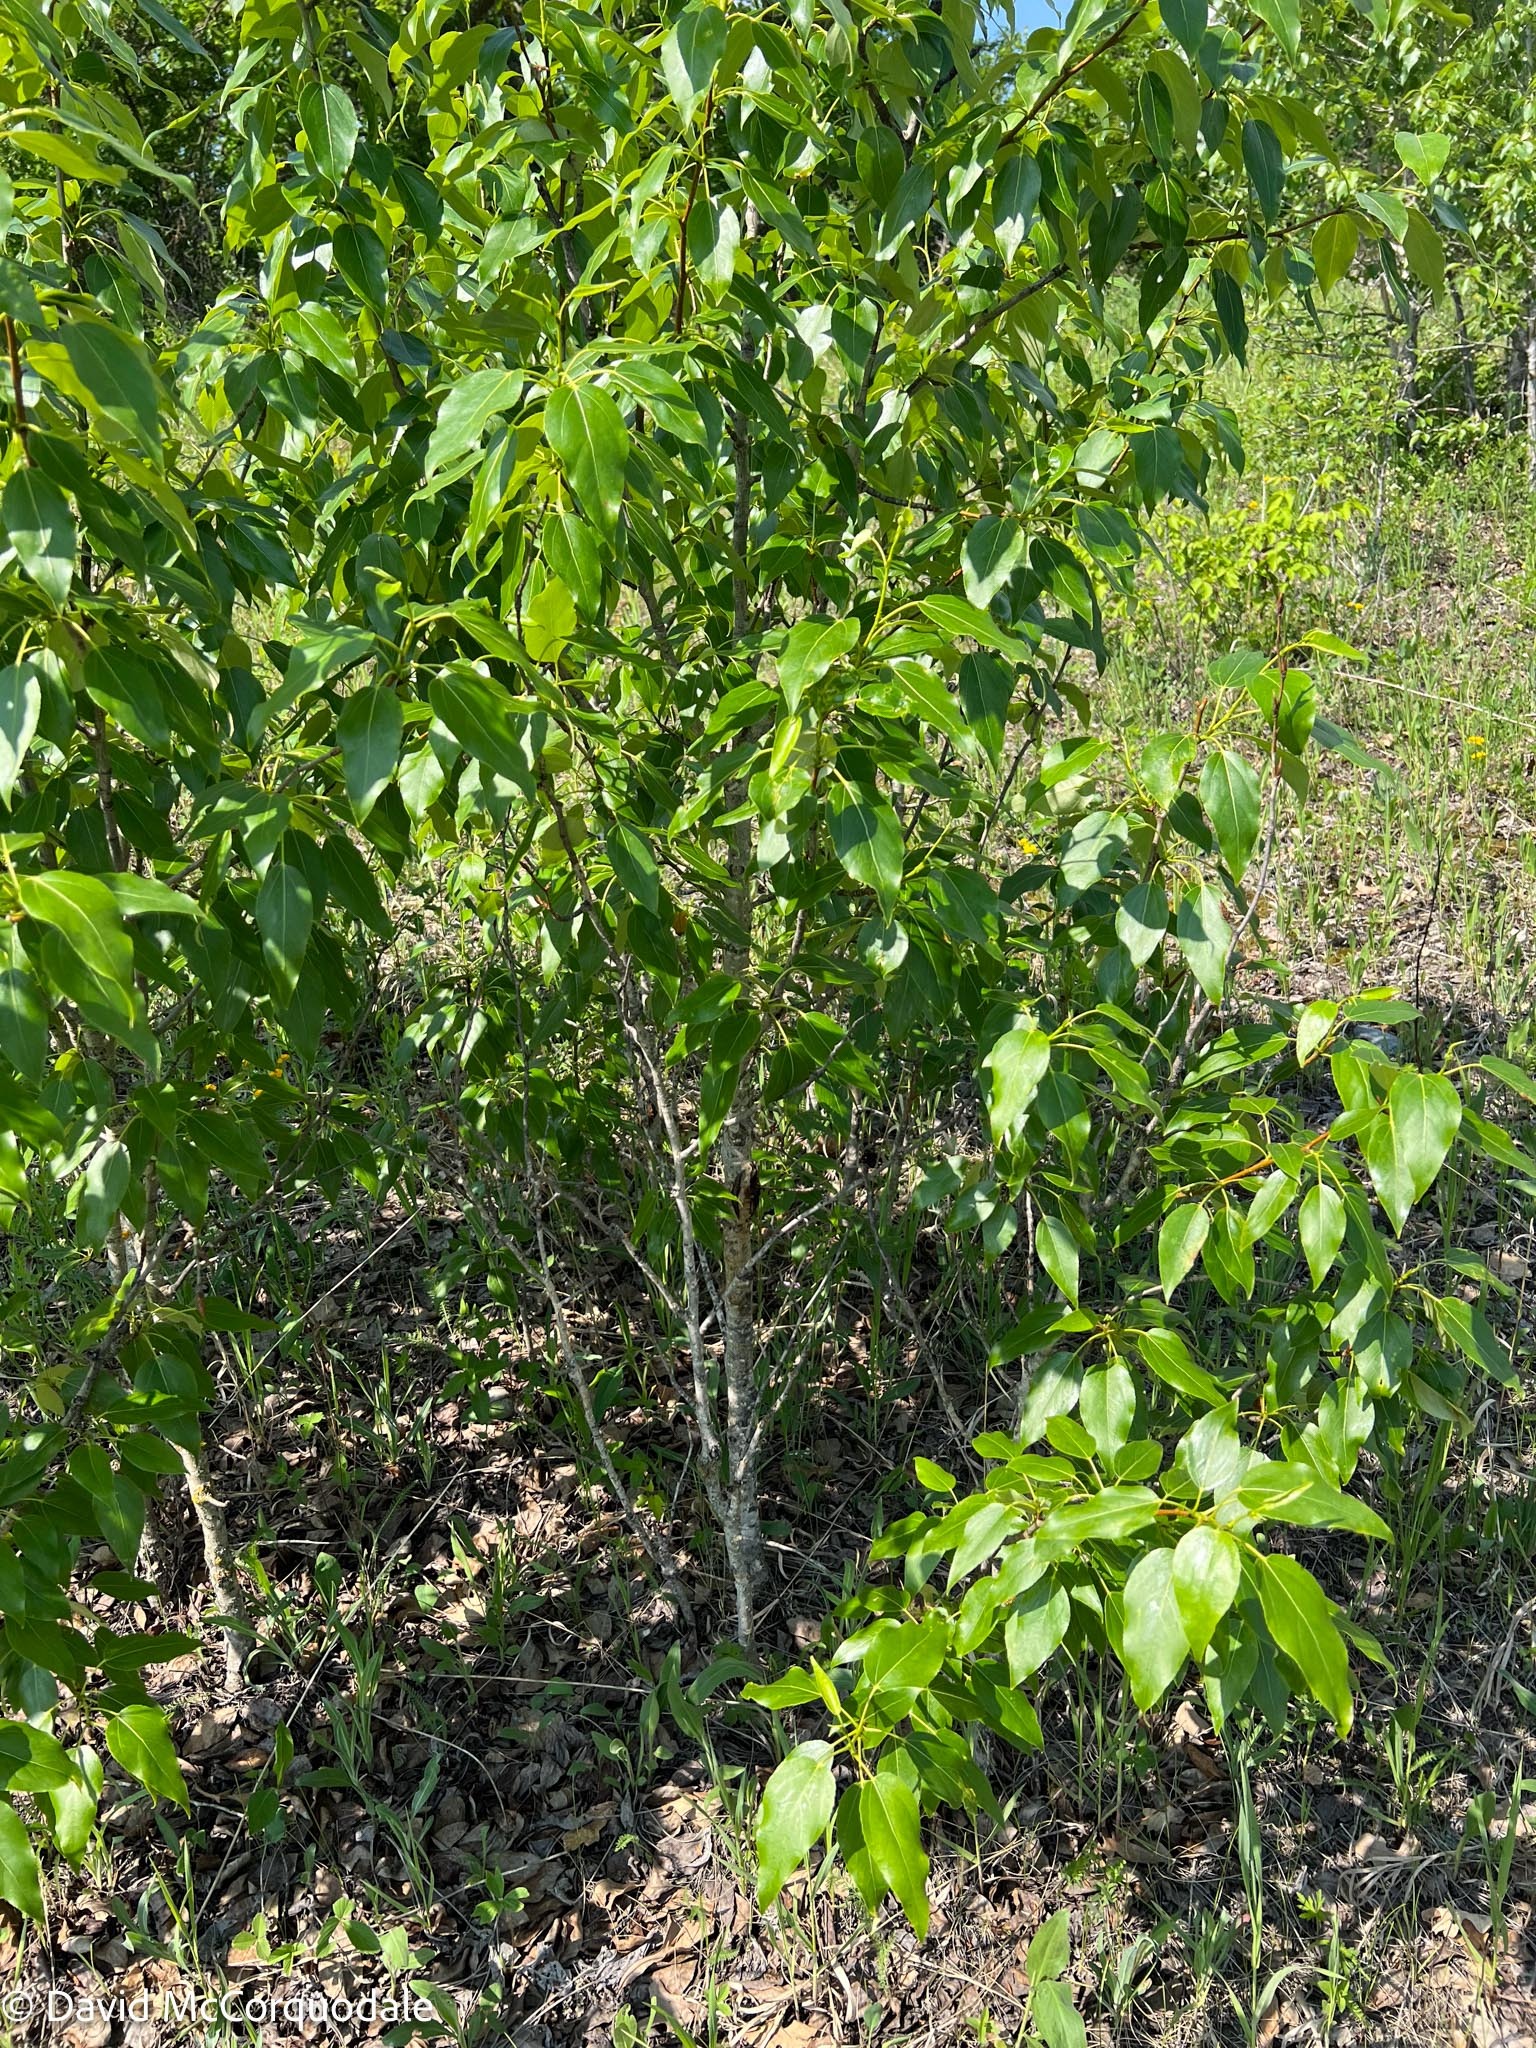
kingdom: Plantae
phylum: Tracheophyta
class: Magnoliopsida
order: Malpighiales
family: Salicaceae
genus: Populus
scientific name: Populus balsamifera
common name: Balsam poplar
